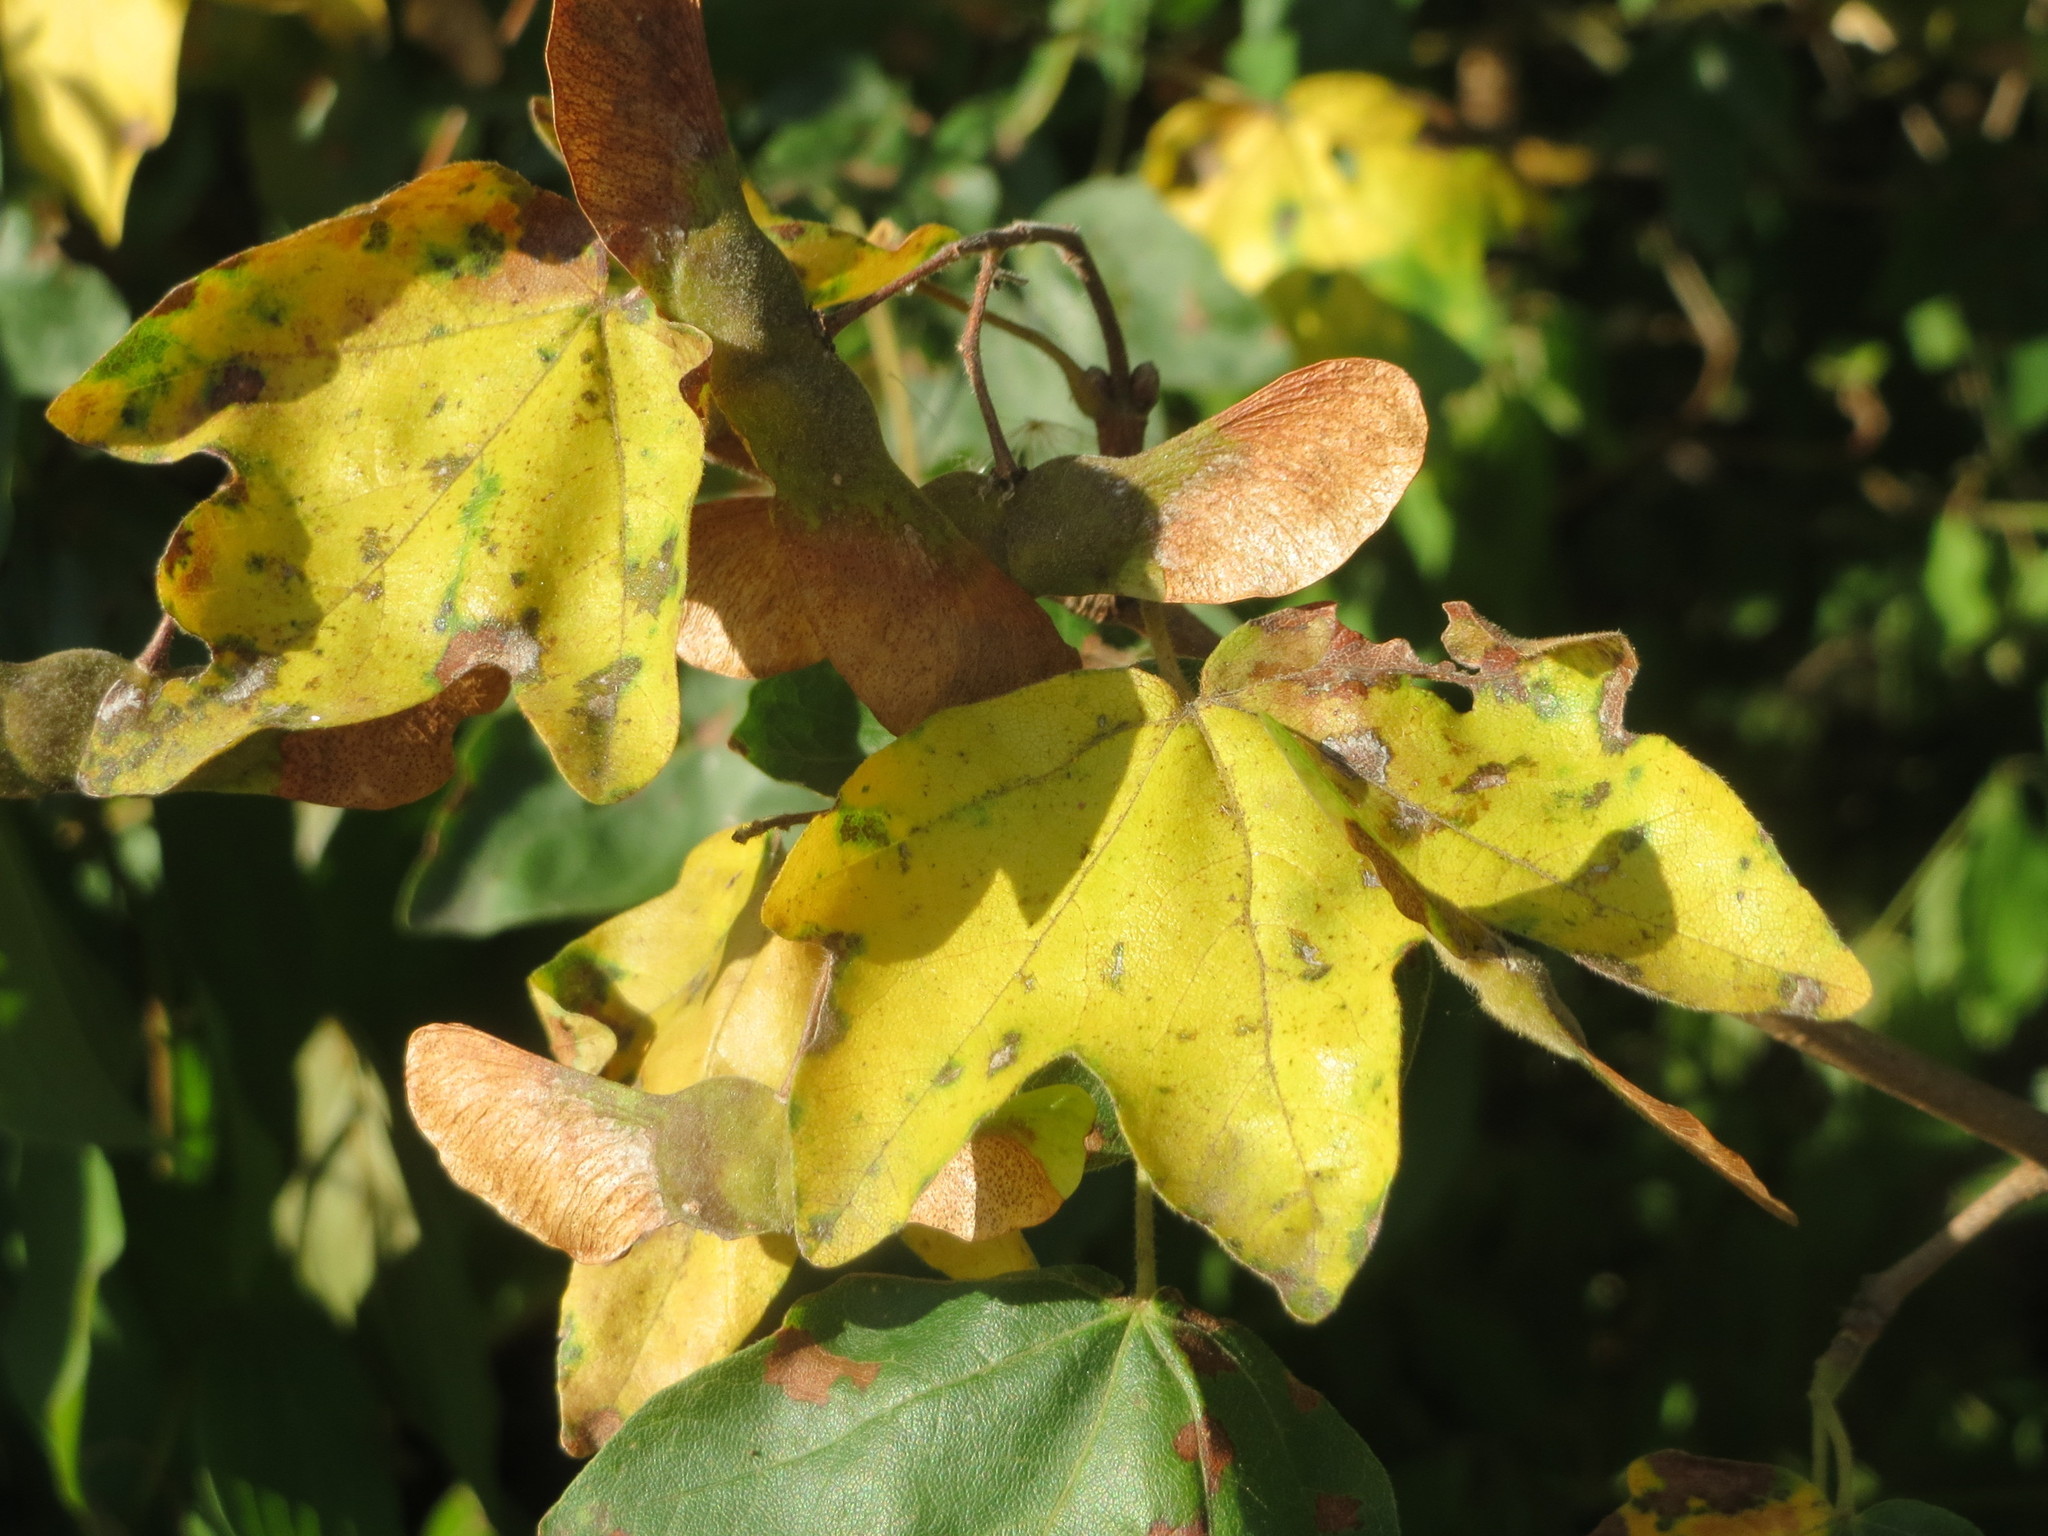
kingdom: Plantae
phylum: Tracheophyta
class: Magnoliopsida
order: Sapindales
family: Sapindaceae
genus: Acer
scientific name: Acer campestre
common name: Field maple
